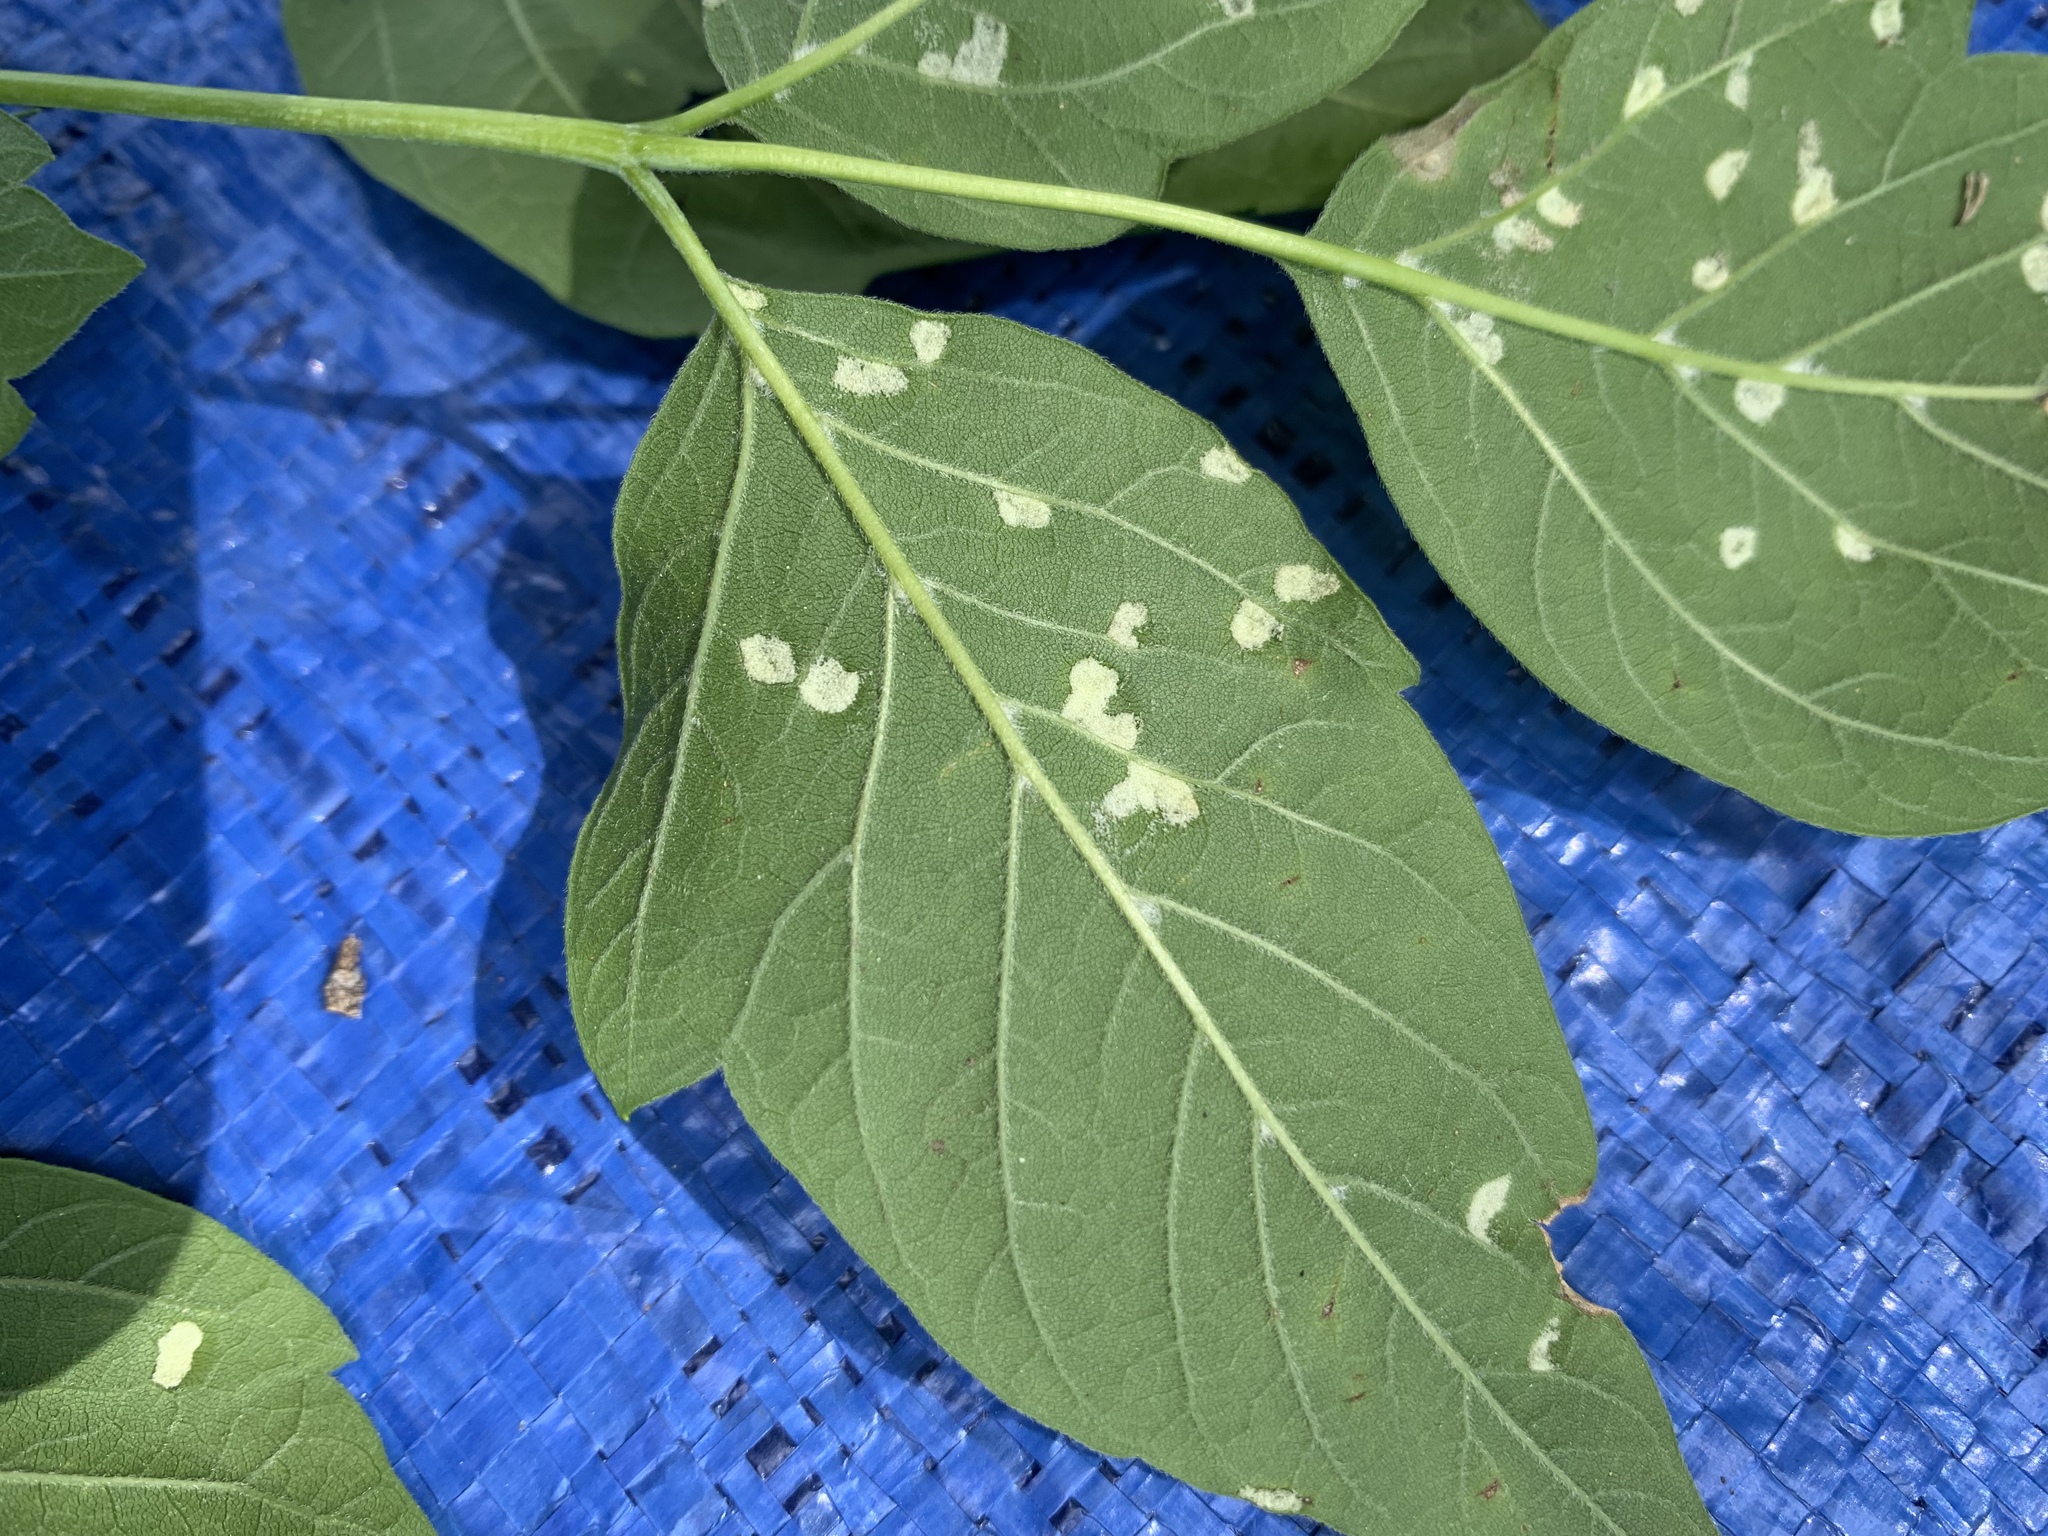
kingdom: Animalia
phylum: Arthropoda
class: Arachnida
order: Trombidiformes
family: Eriophyidae
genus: Aceria
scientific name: Aceria
